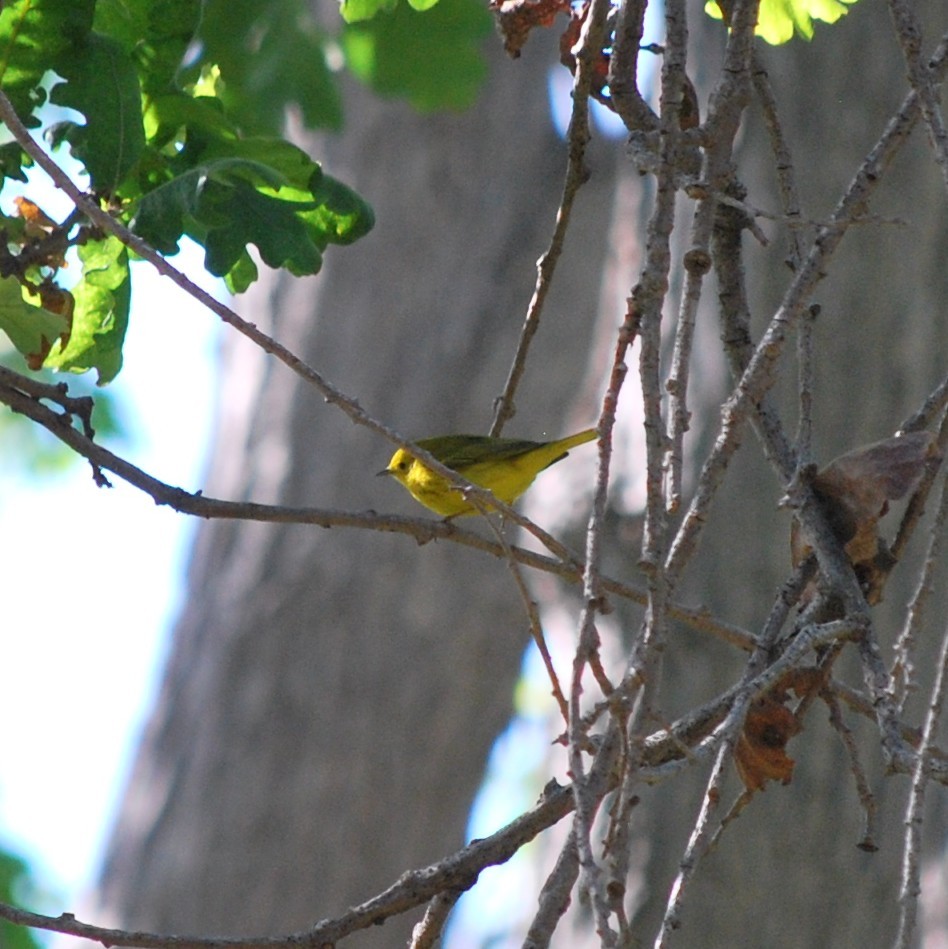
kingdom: Animalia
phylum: Chordata
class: Aves
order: Passeriformes
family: Parulidae
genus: Setophaga
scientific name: Setophaga petechia
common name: Yellow warbler
